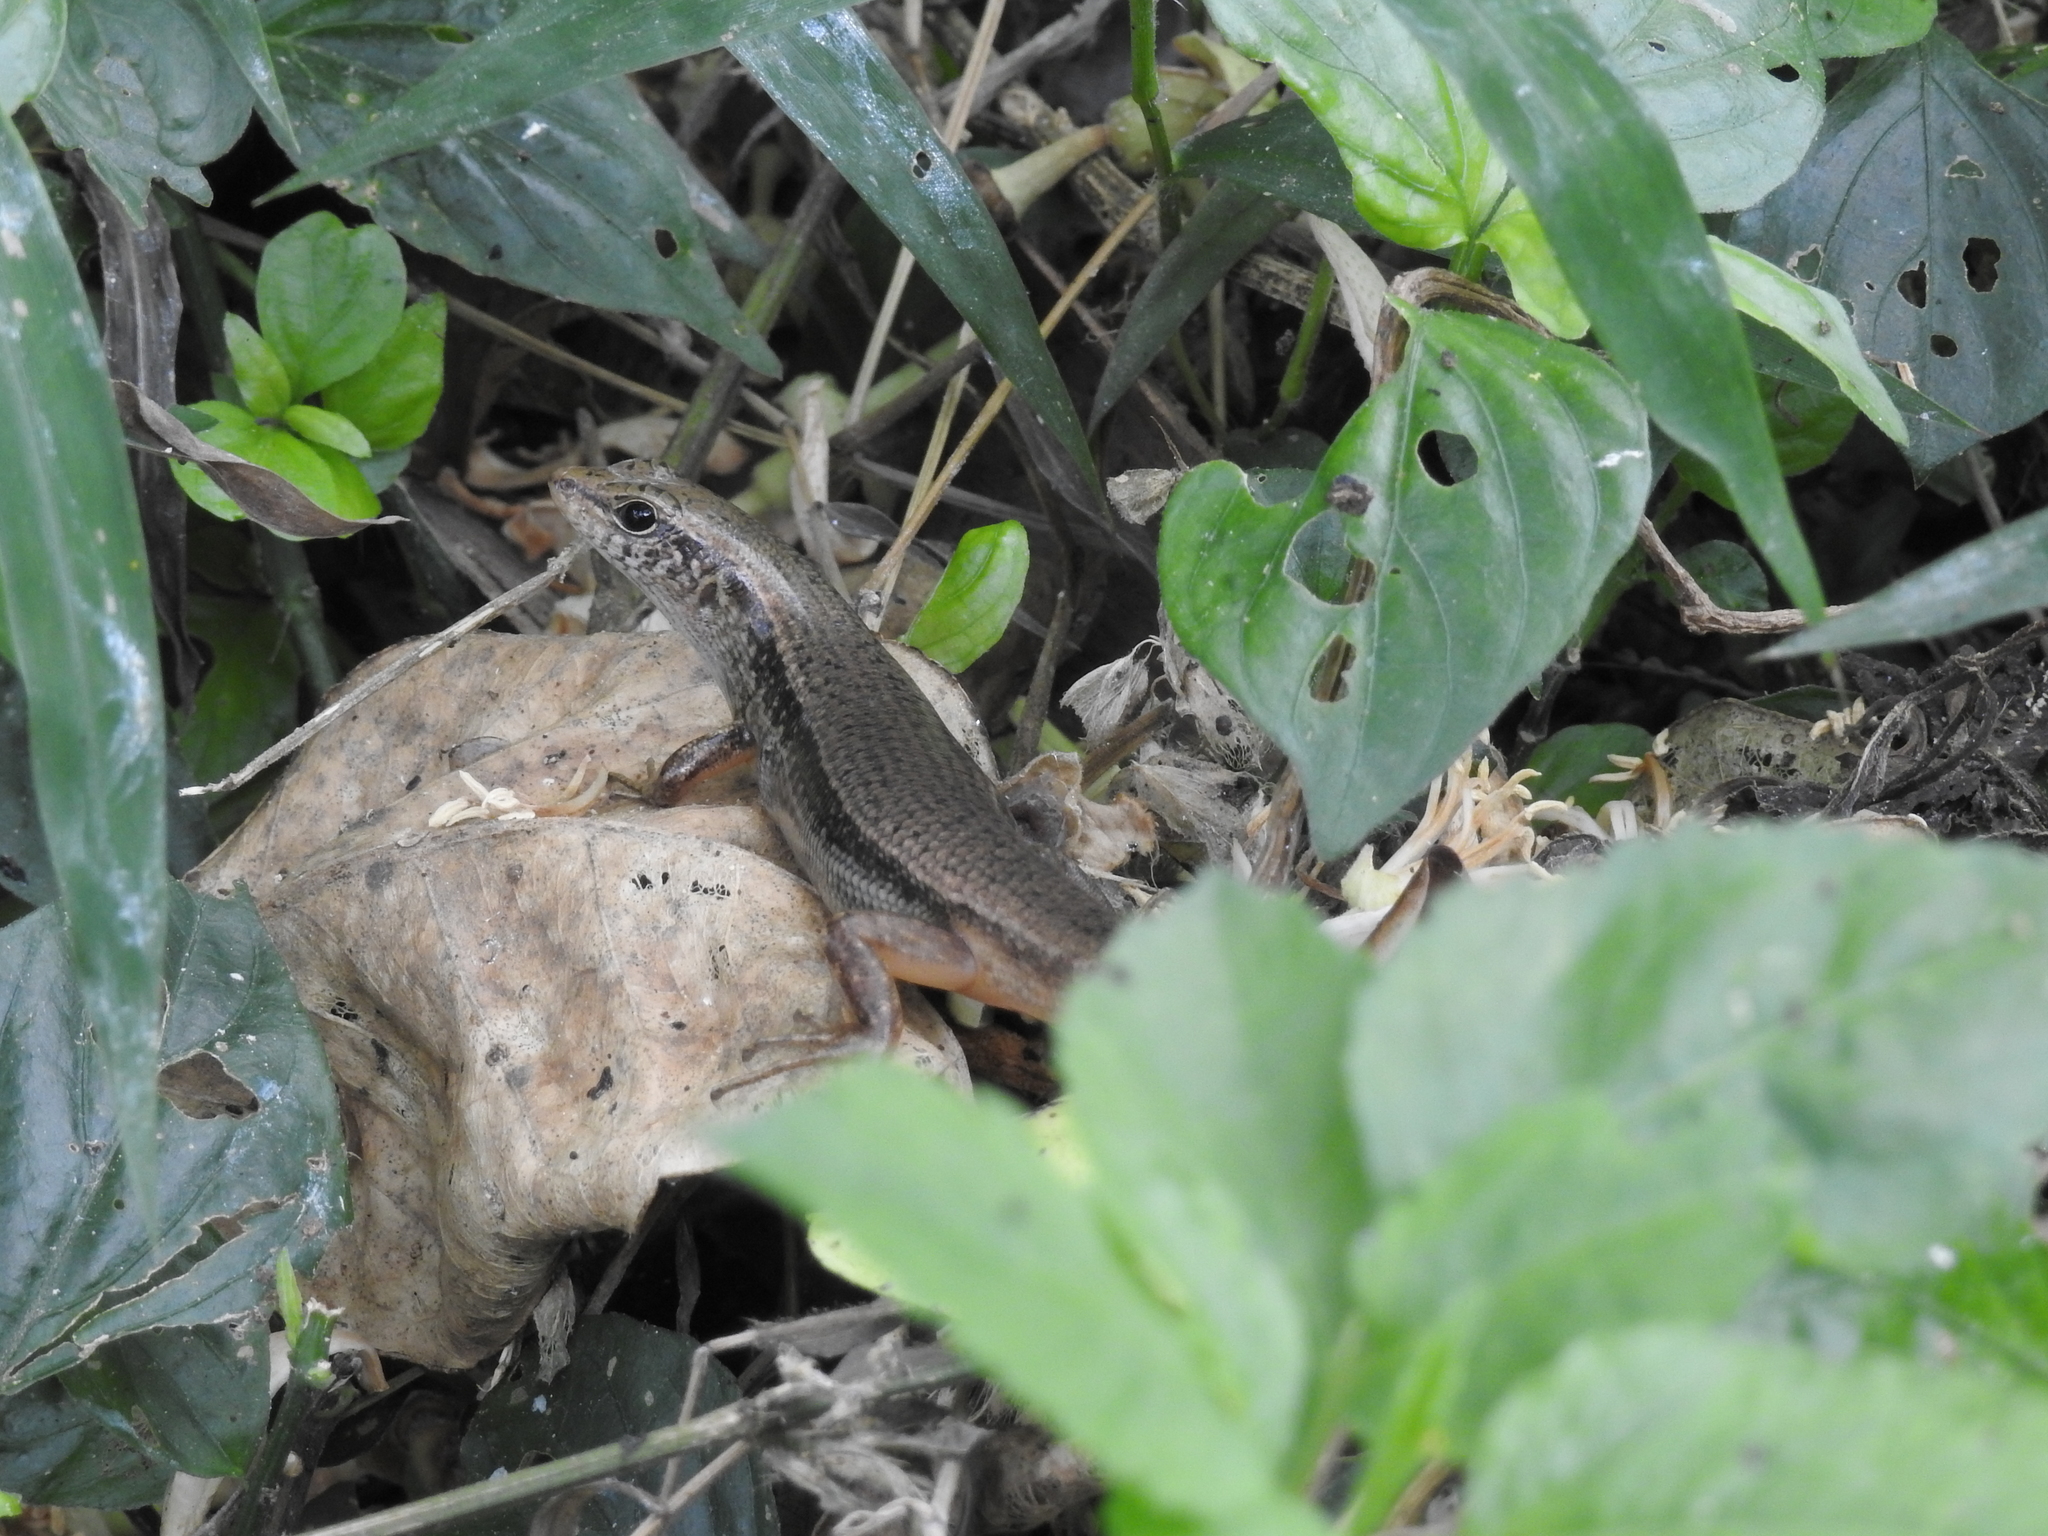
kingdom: Animalia
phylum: Chordata
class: Squamata
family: Scincidae
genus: Sphenomorphus
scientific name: Sphenomorphus indicus
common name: Himalayan forest skink
